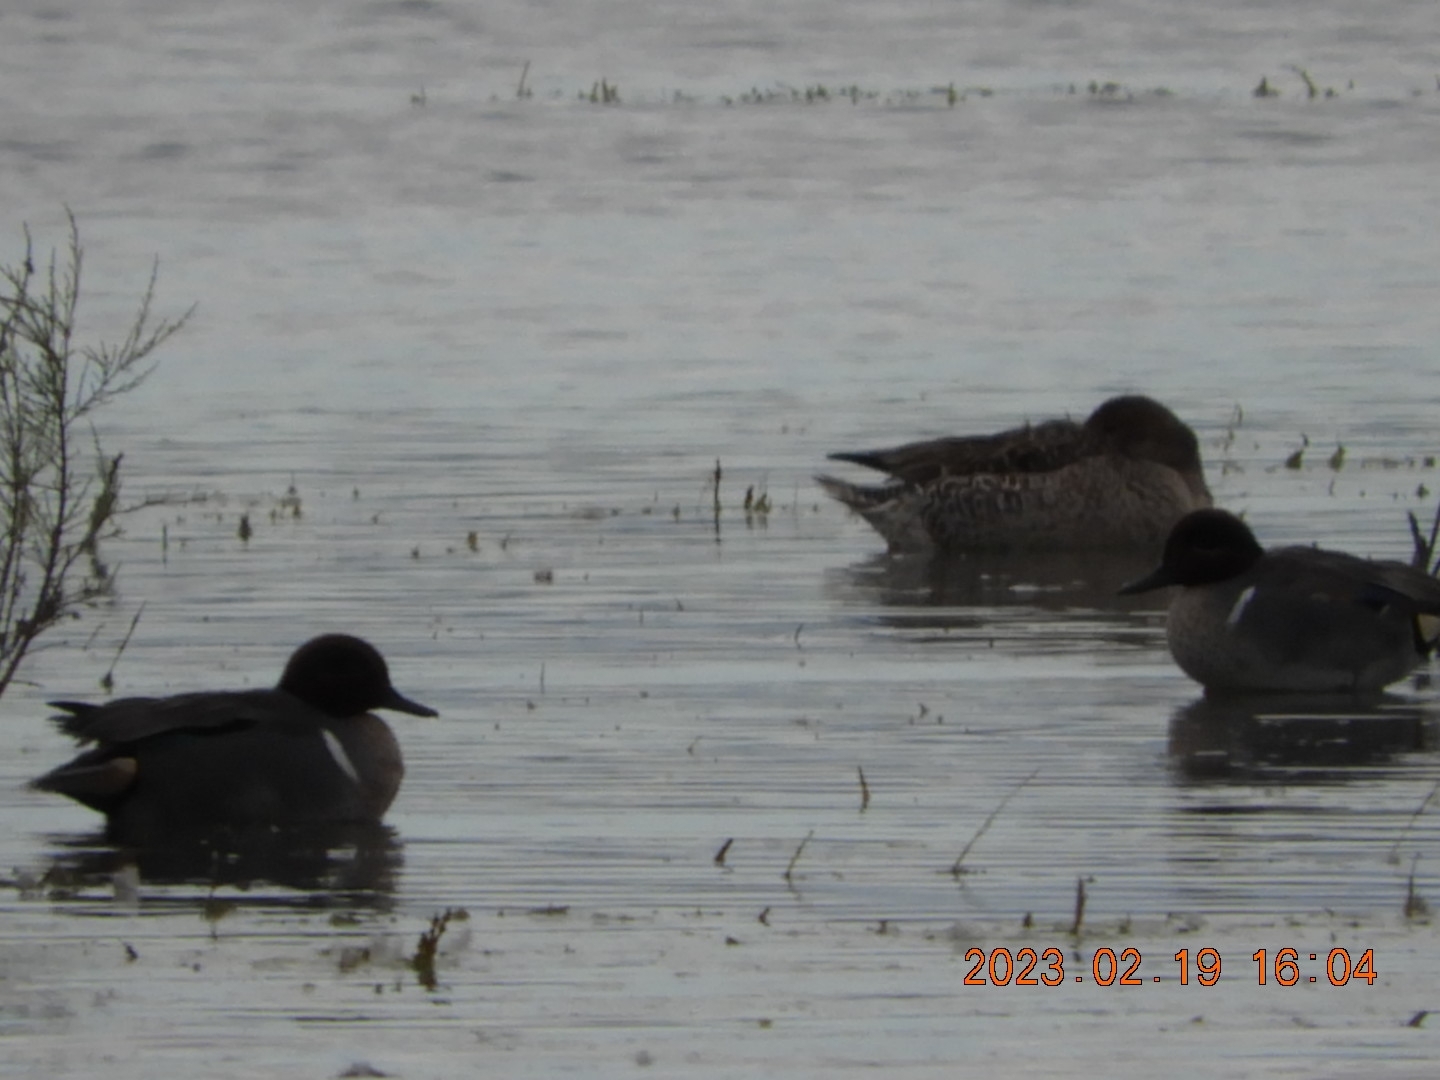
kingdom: Animalia
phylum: Chordata
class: Aves
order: Anseriformes
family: Anatidae
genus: Anas
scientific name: Anas crecca
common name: Eurasian teal
